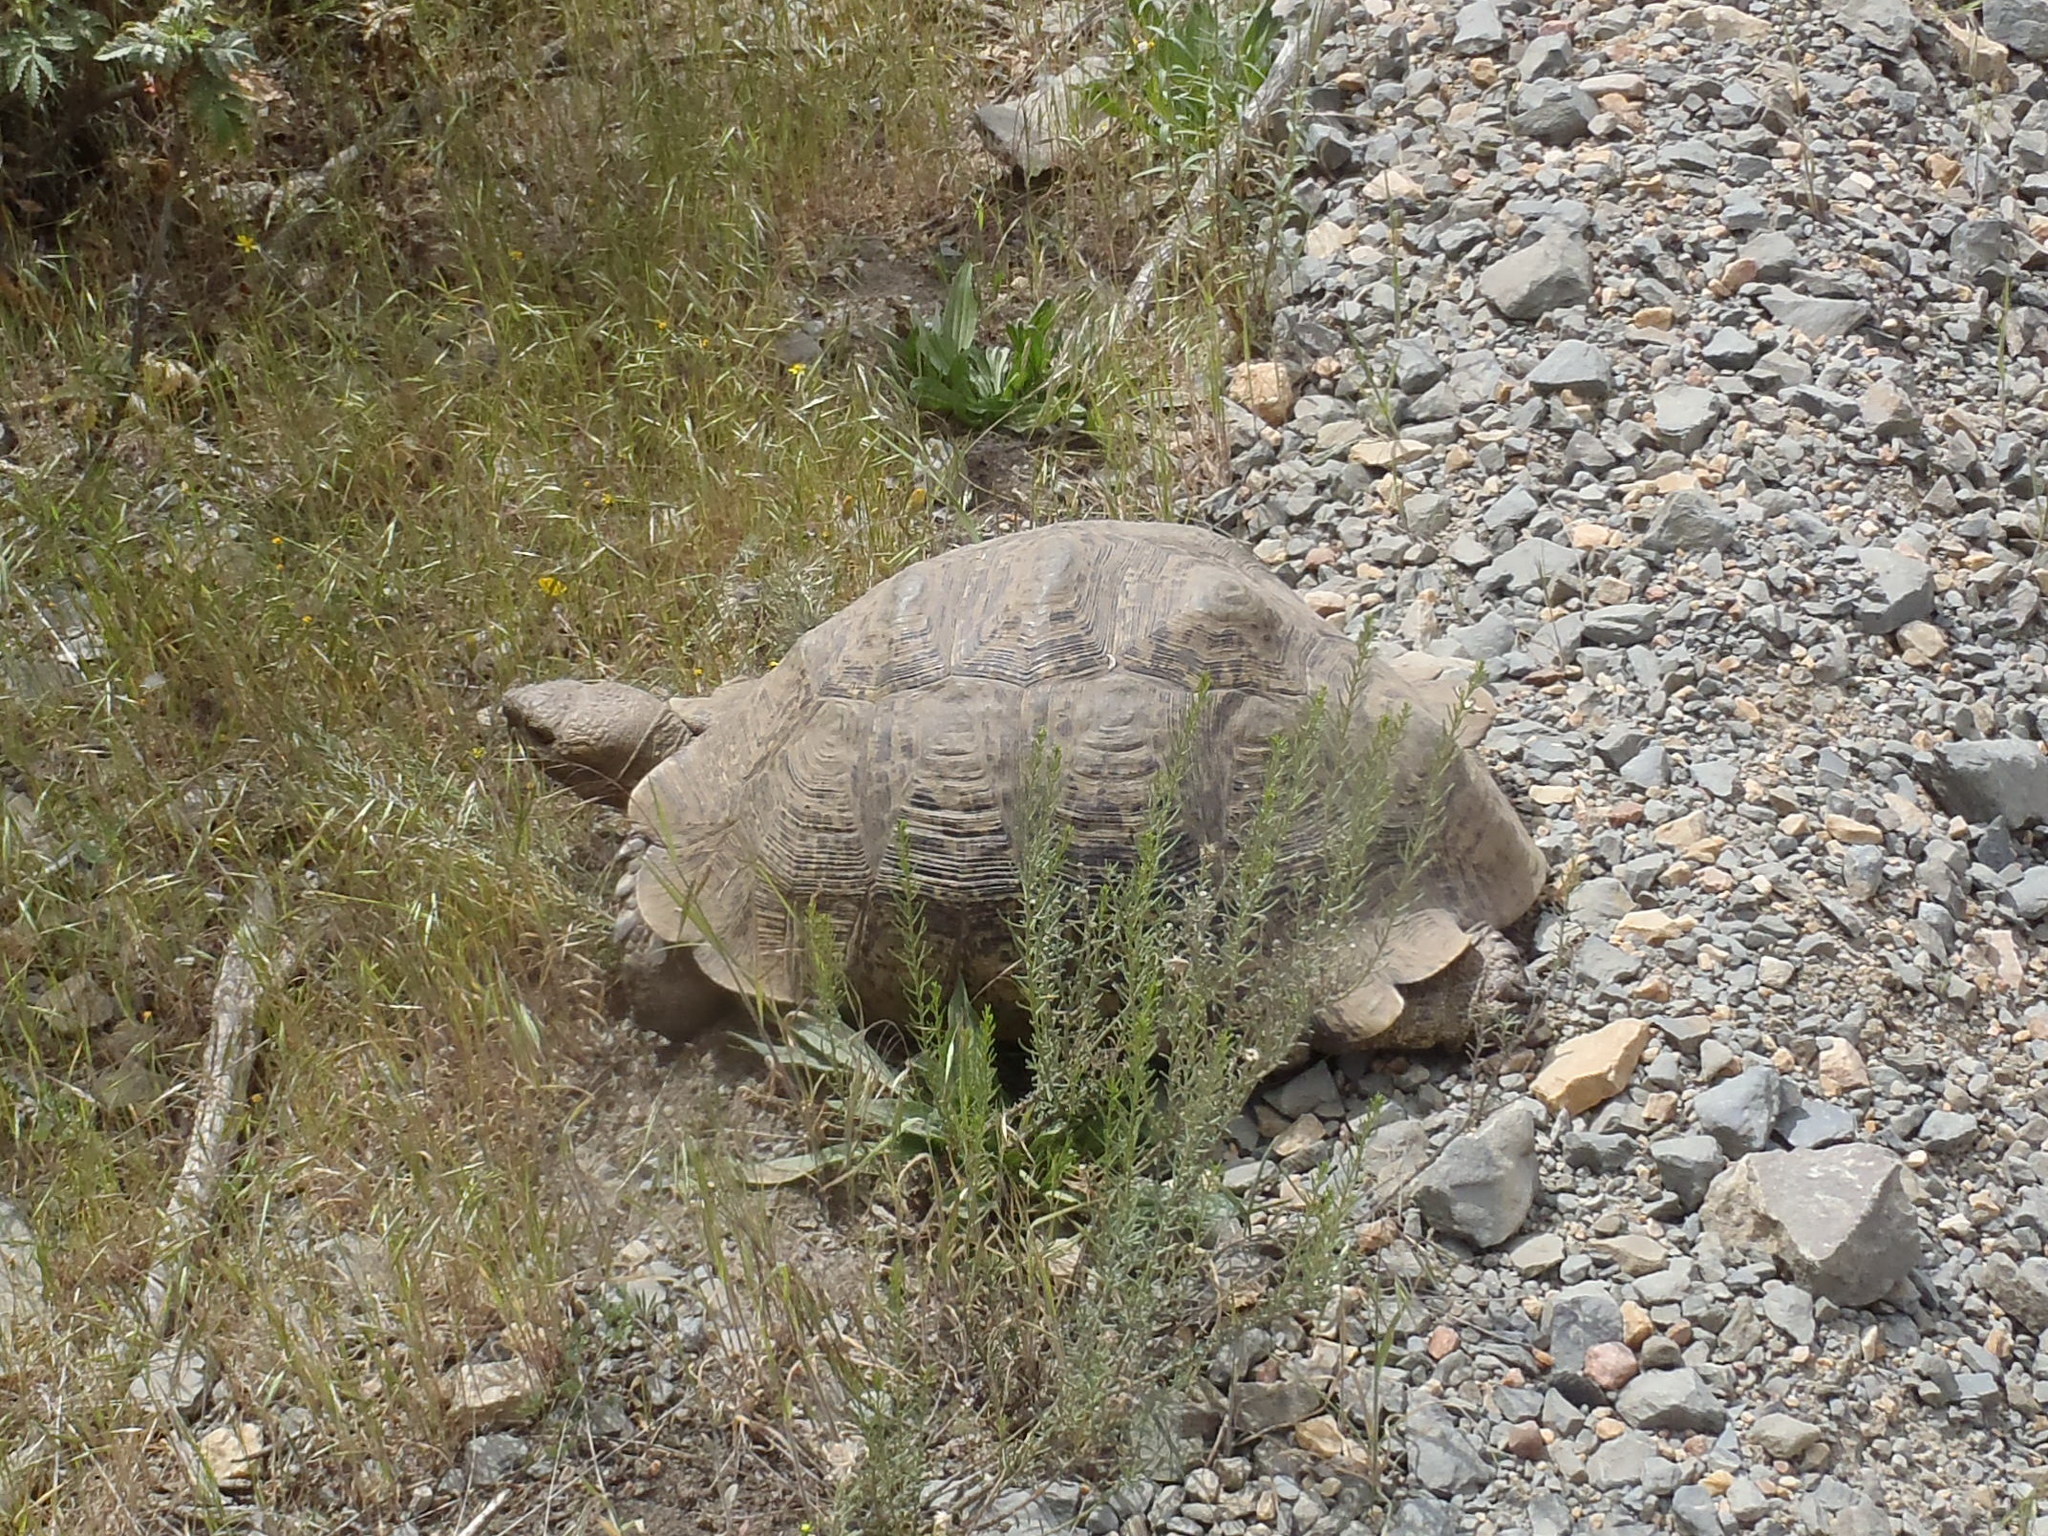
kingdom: Animalia
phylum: Chordata
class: Testudines
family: Testudinidae
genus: Stigmochelys
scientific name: Stigmochelys pardalis
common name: Leopard tortoise
